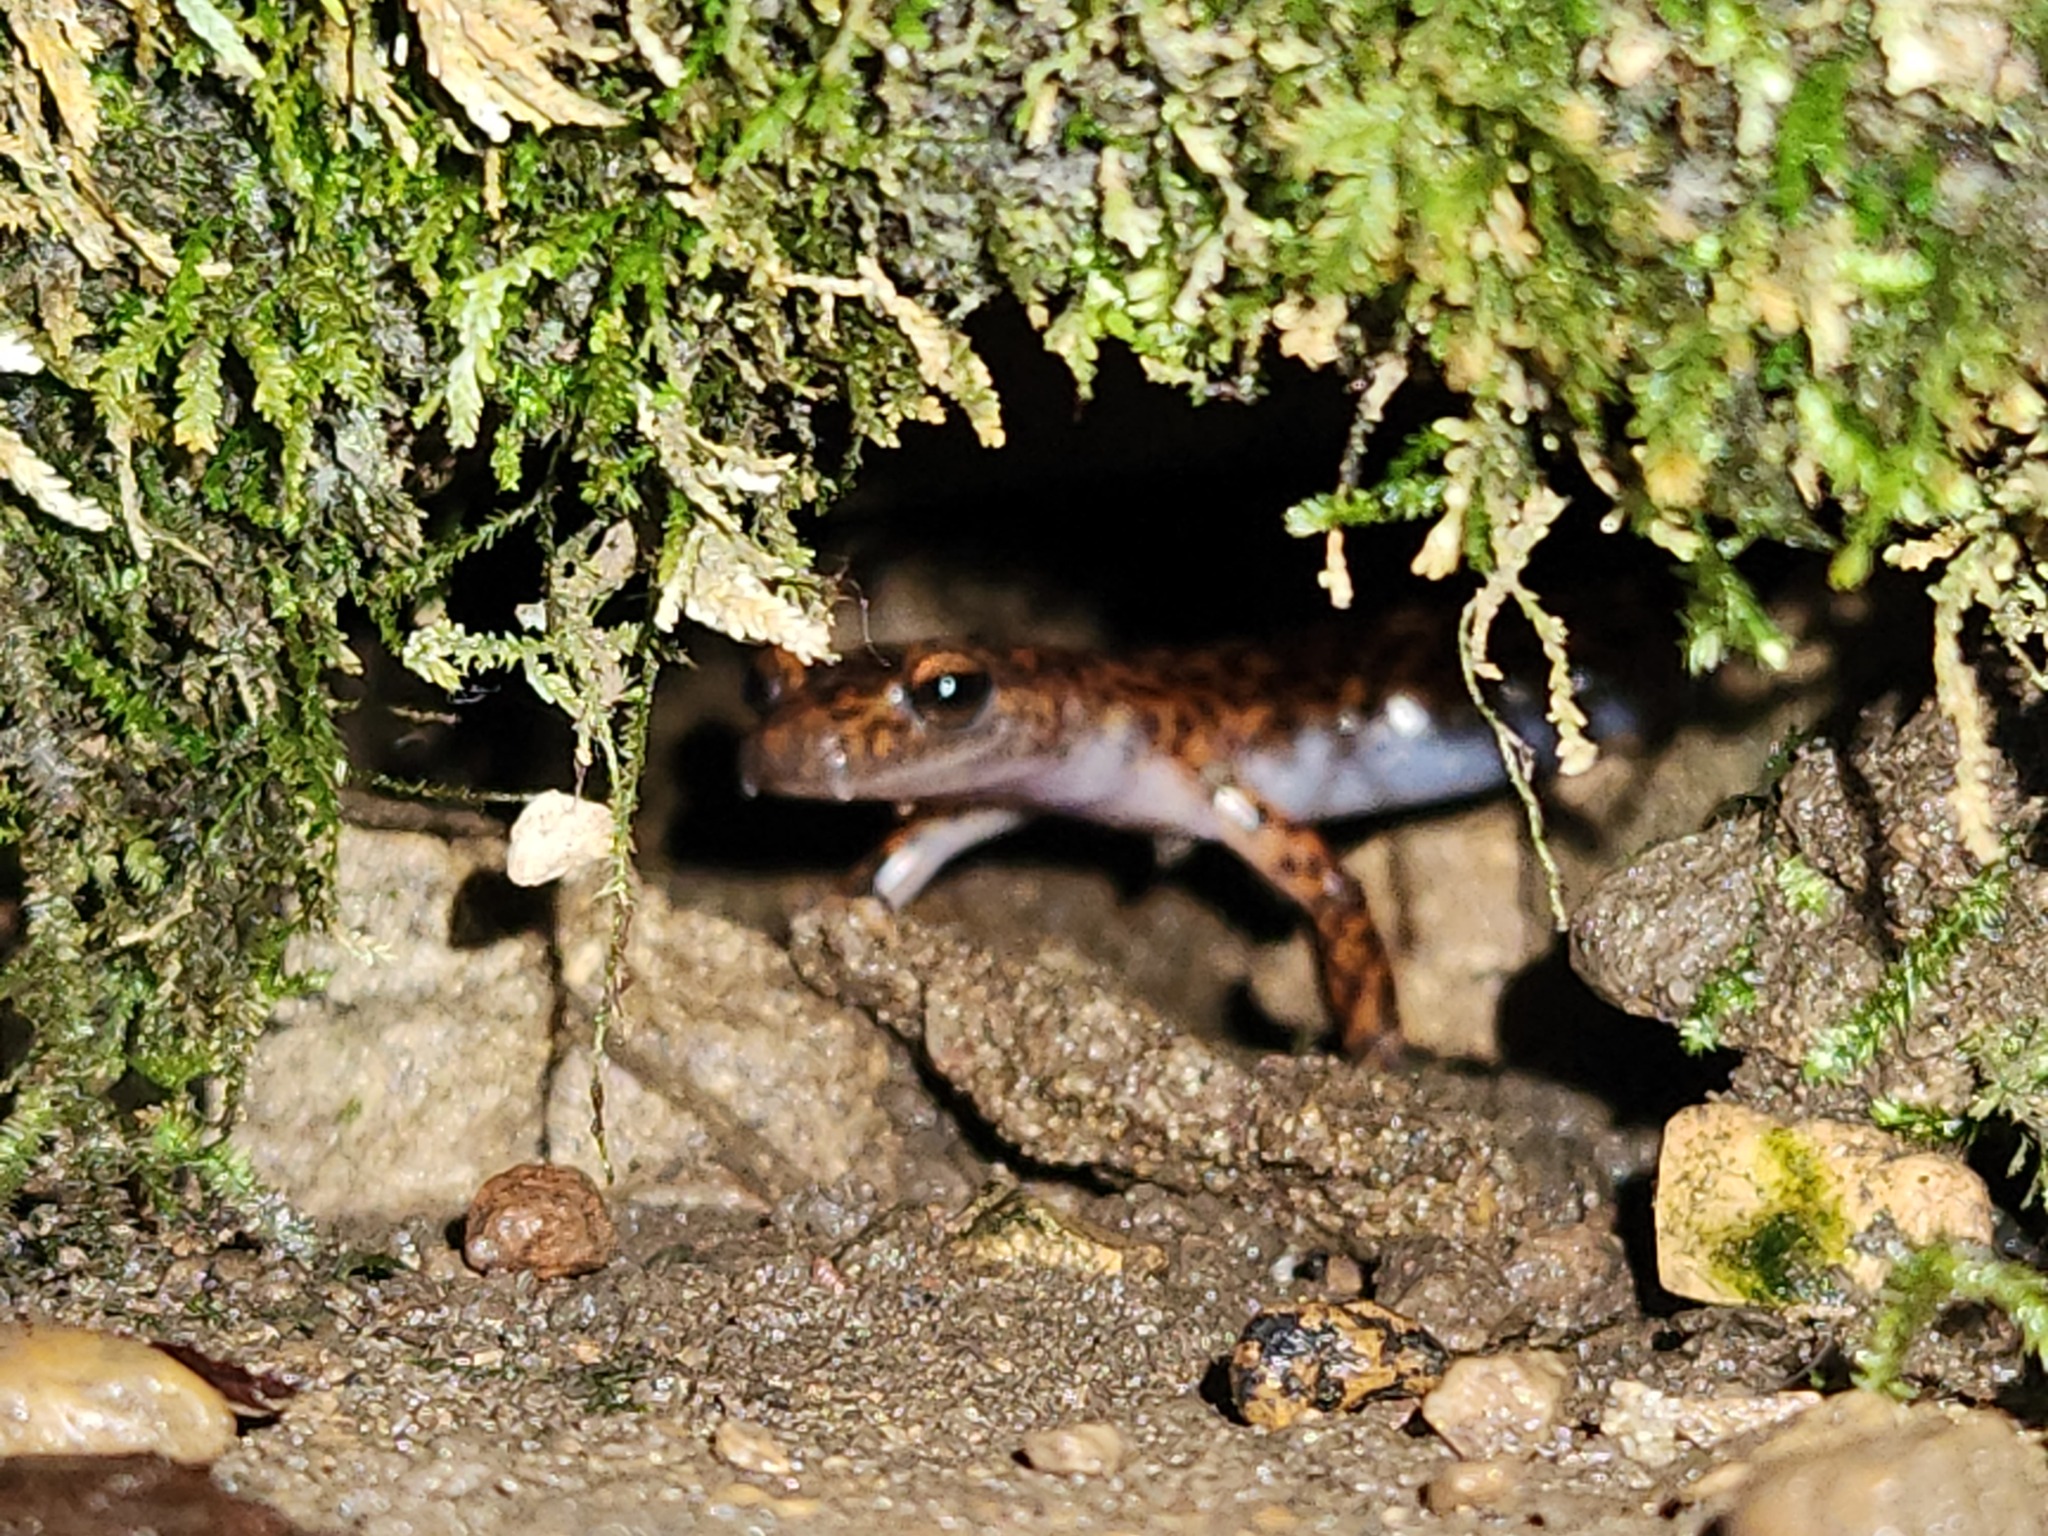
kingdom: Animalia
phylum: Chordata
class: Amphibia
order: Caudata
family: Plethodontidae
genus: Eurycea
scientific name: Eurycea lucifuga
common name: Cave salamander
